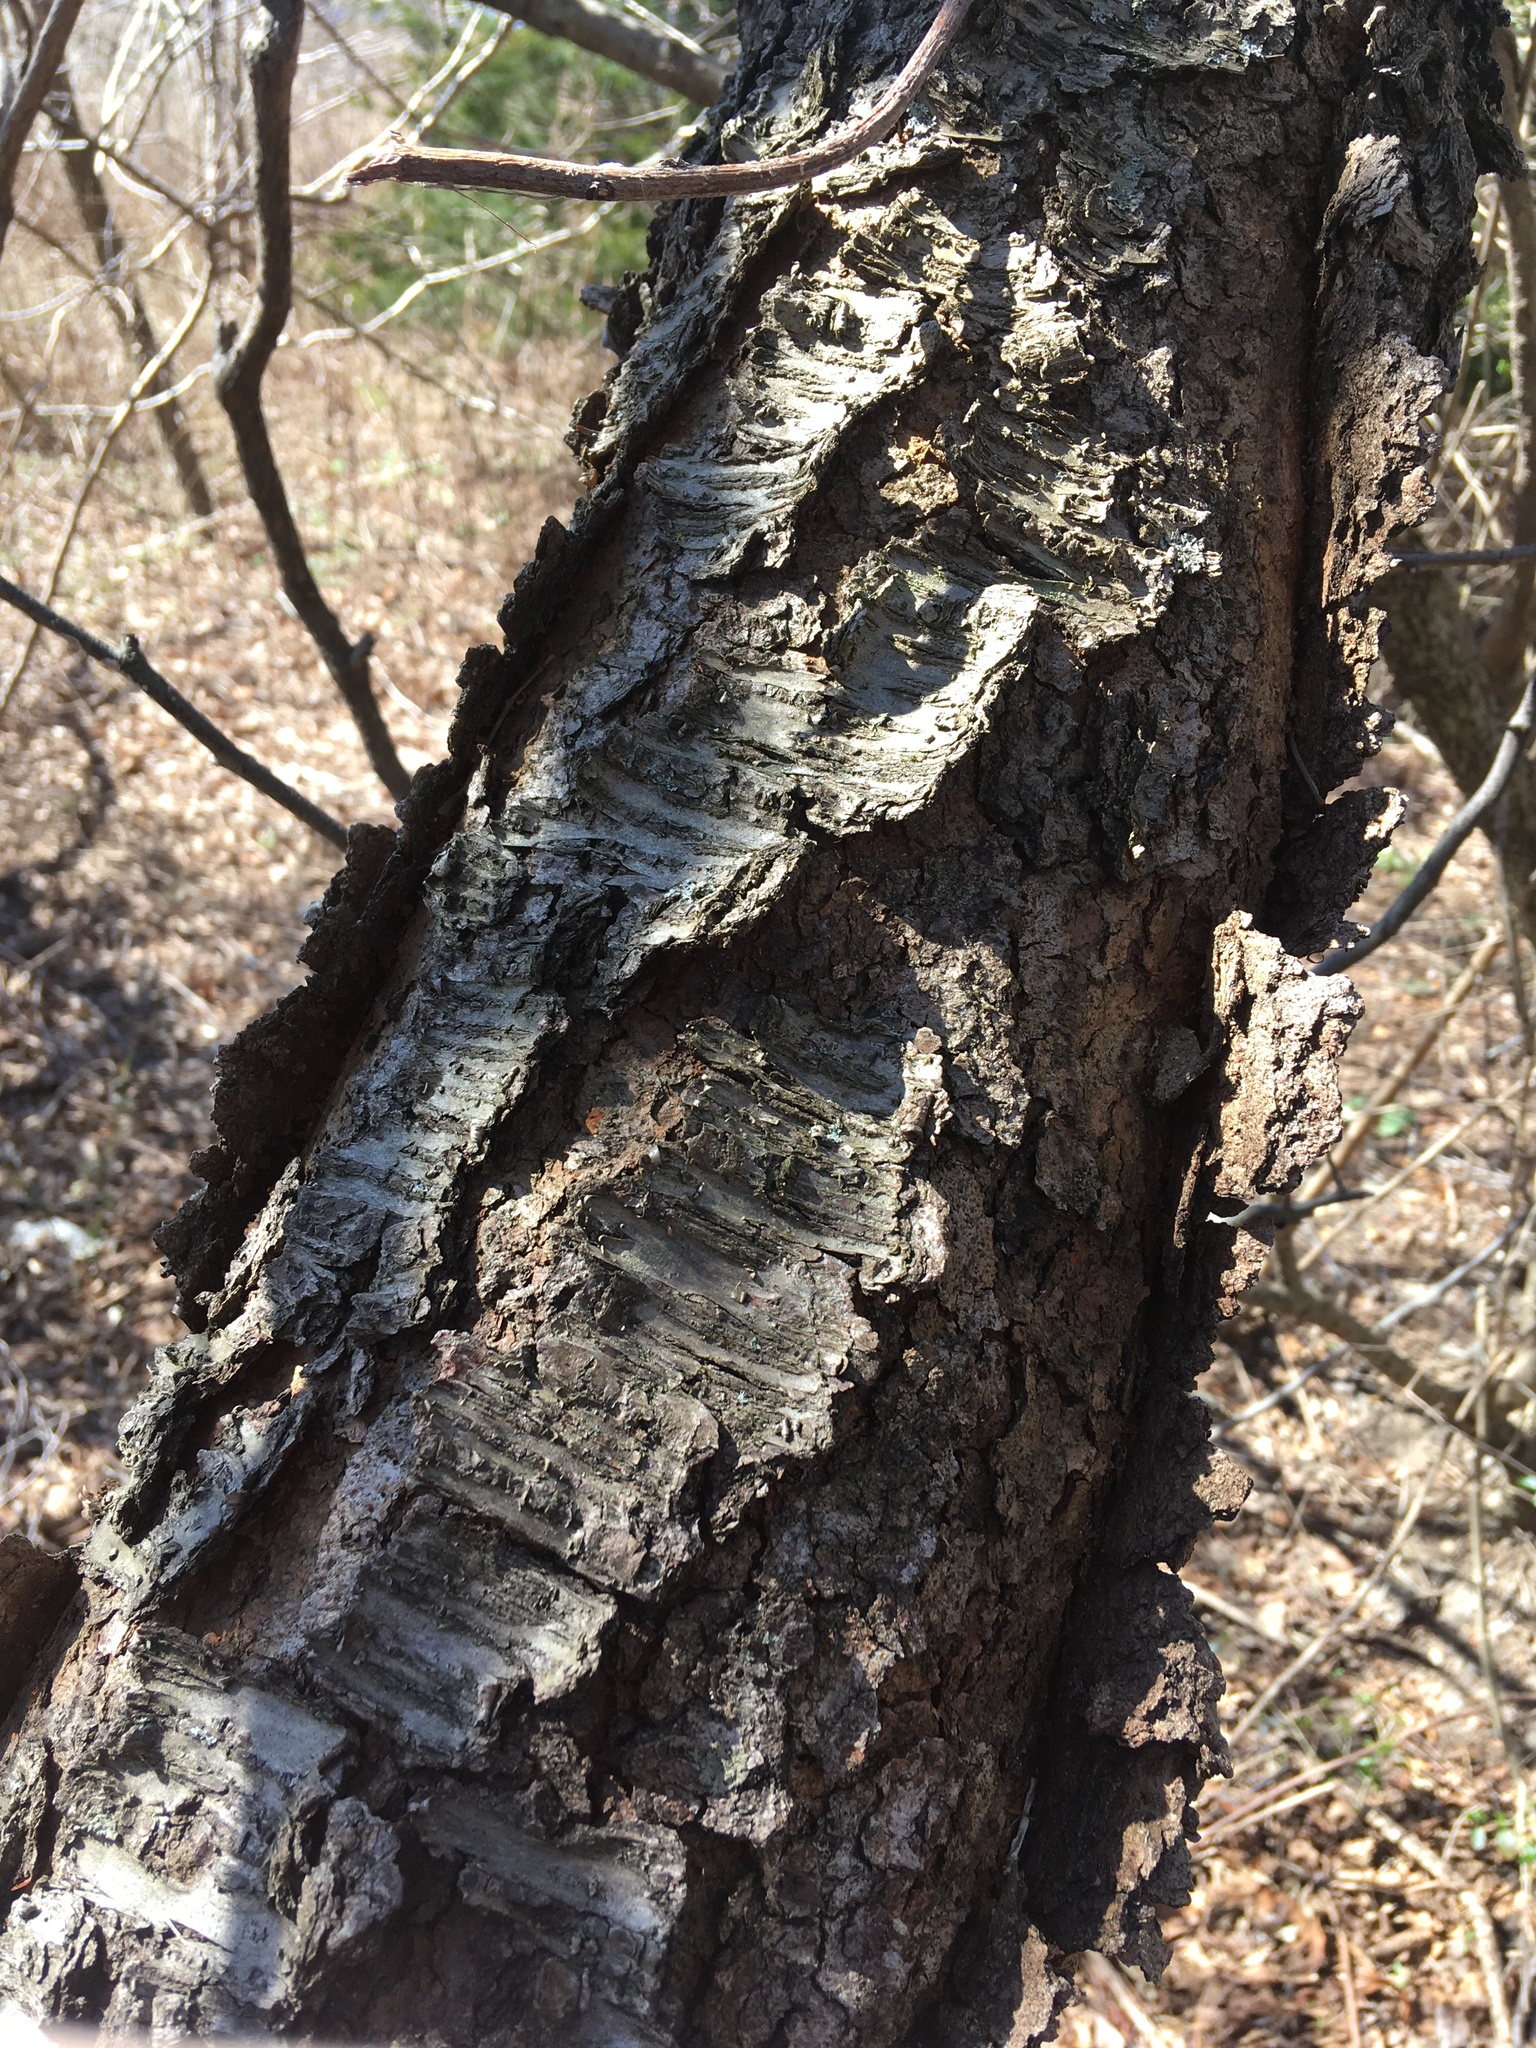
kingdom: Plantae
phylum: Tracheophyta
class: Magnoliopsida
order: Rosales
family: Rosaceae
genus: Prunus
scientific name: Prunus serotina
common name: Black cherry
